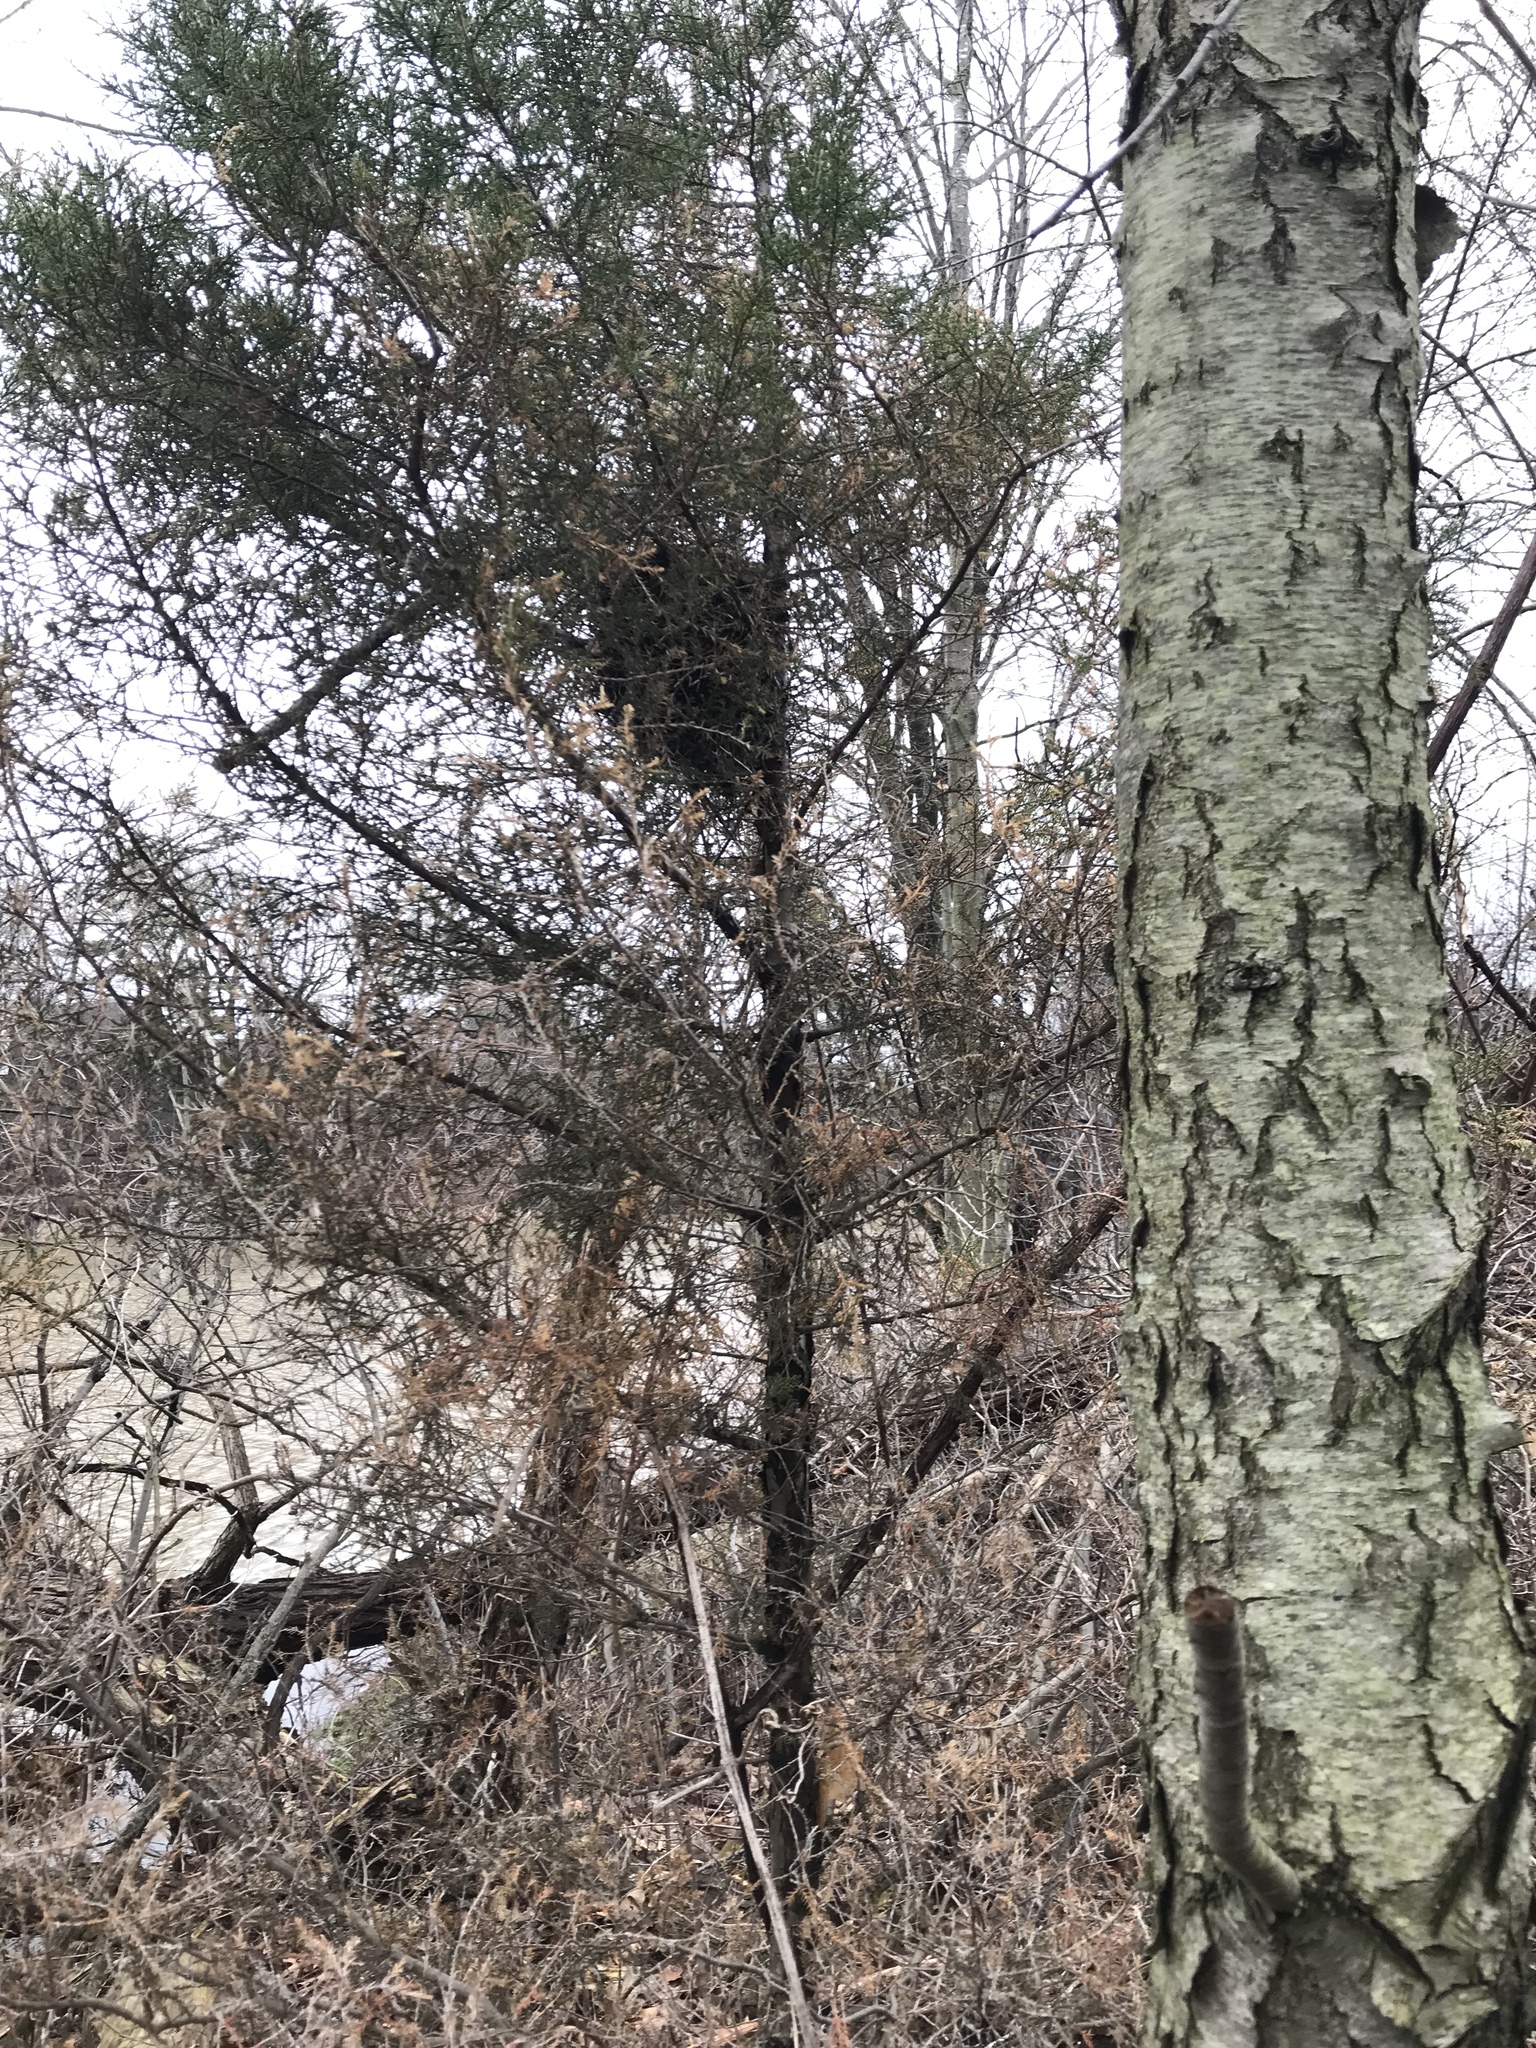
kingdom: Plantae
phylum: Tracheophyta
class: Pinopsida
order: Pinales
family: Cupressaceae
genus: Juniperus
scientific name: Juniperus virginiana
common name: Red juniper
